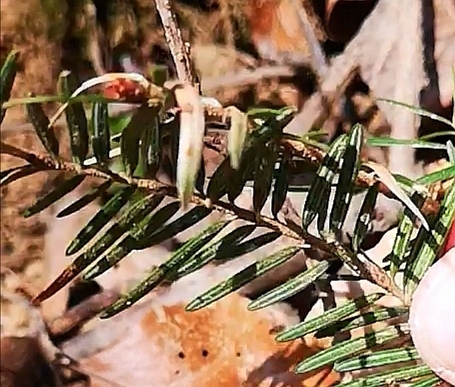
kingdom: Plantae
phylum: Tracheophyta
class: Pinopsida
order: Pinales
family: Pinaceae
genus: Abies
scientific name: Abies alba
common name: Silver fir
